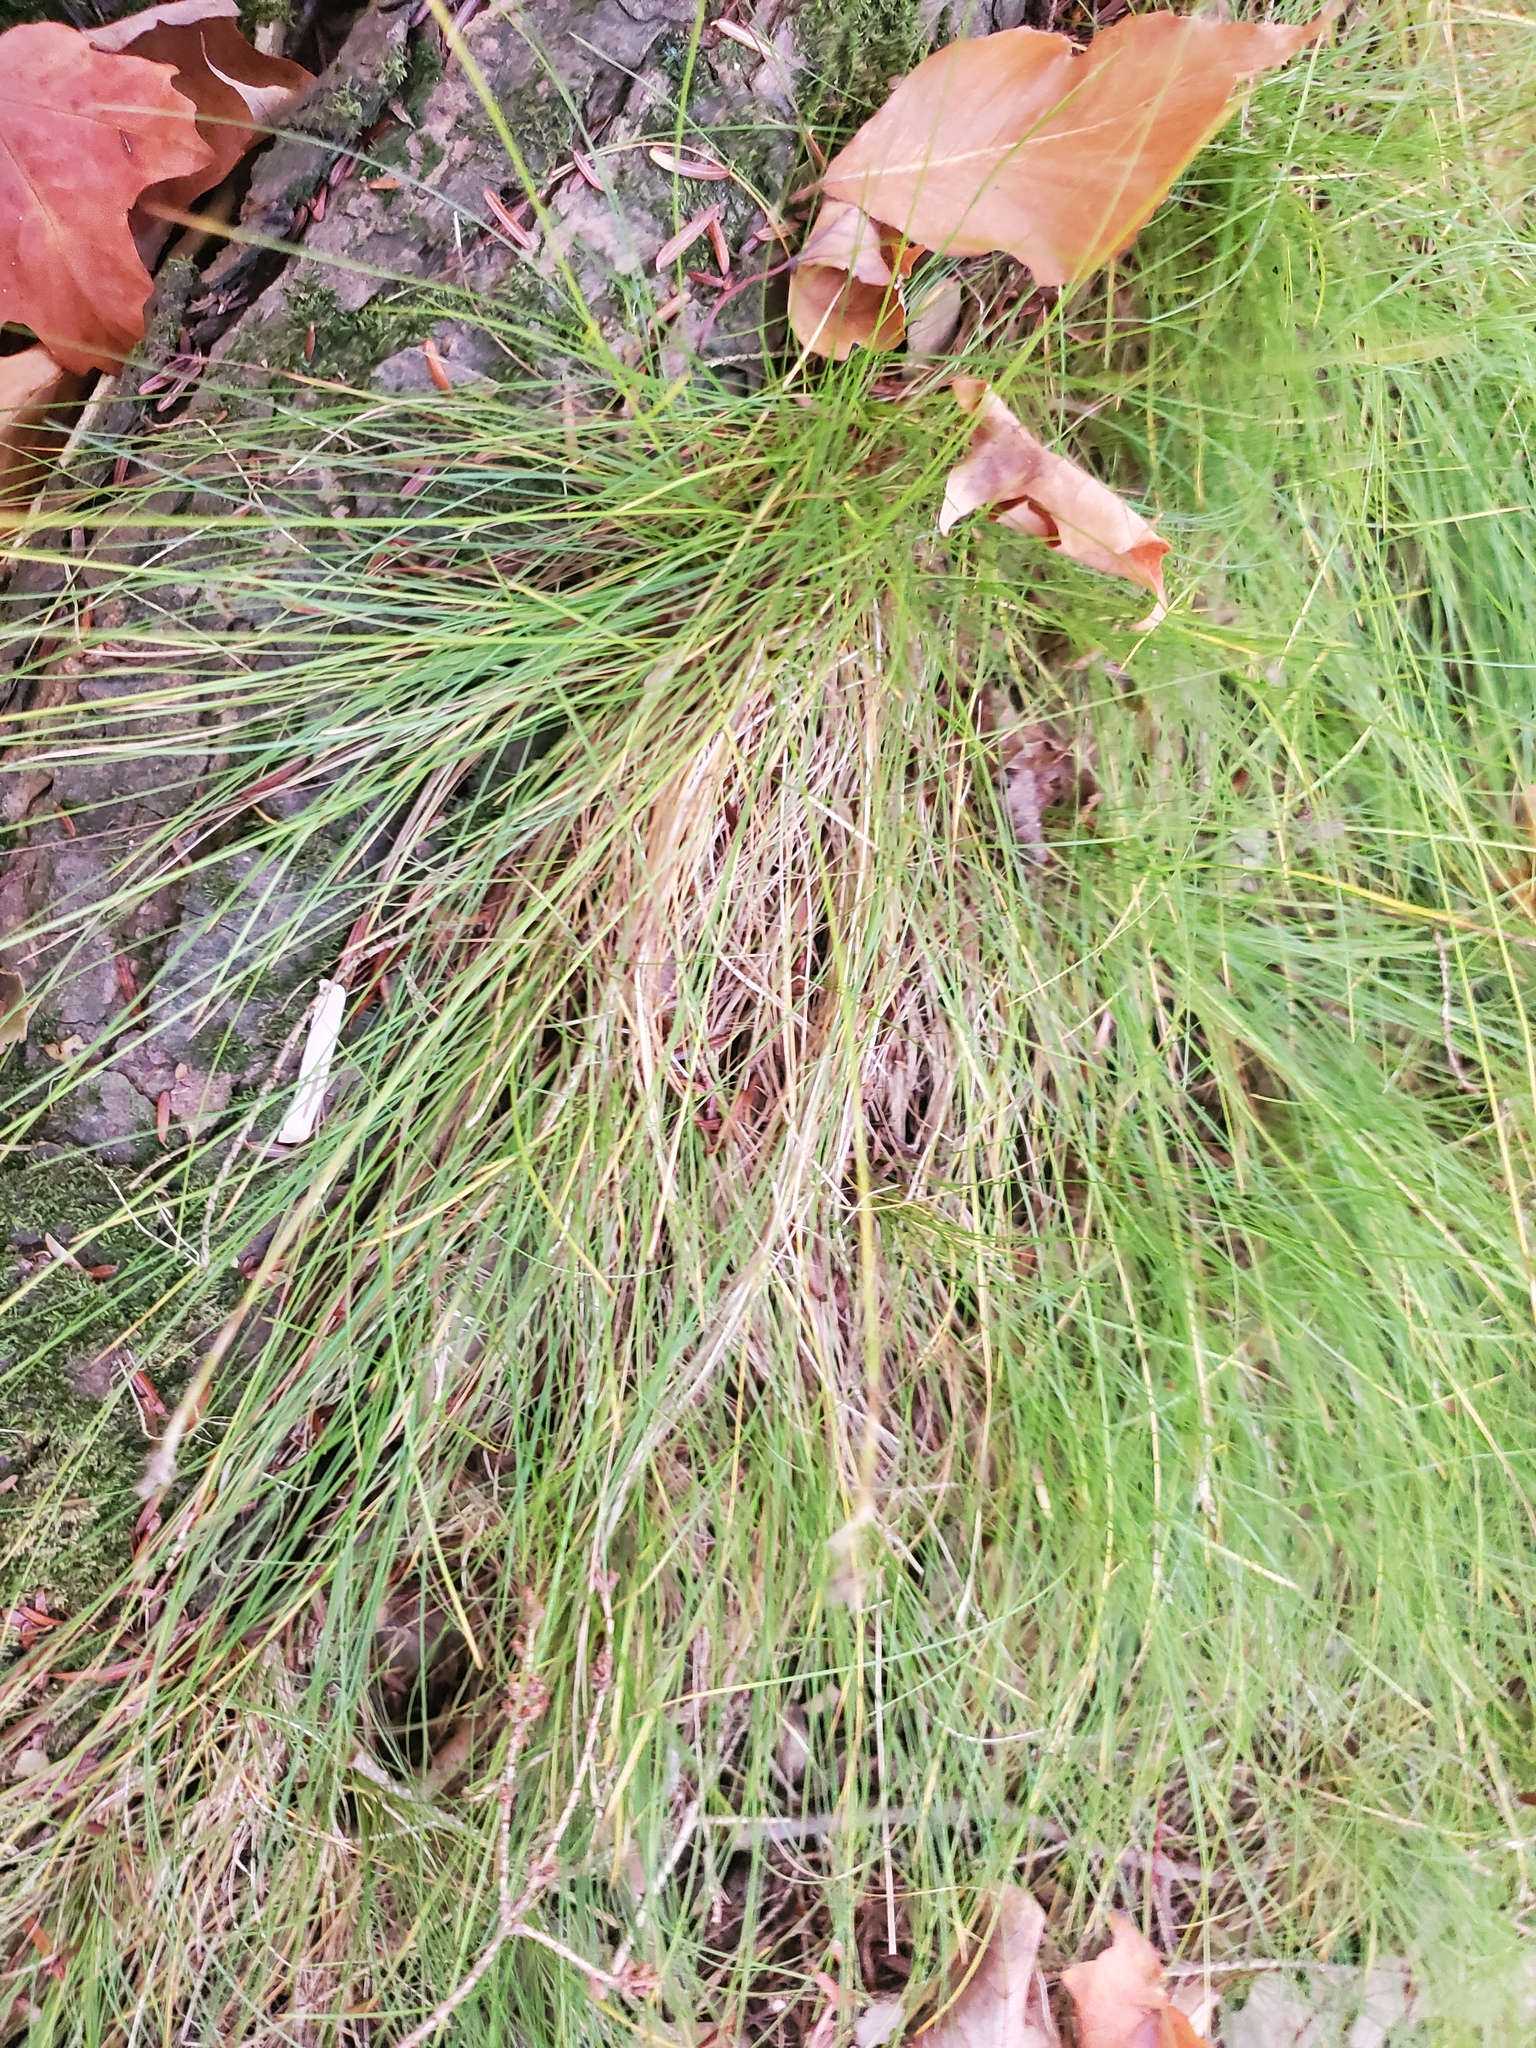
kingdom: Plantae
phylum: Tracheophyta
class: Liliopsida
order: Poales
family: Cyperaceae
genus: Carex
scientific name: Carex eburnea
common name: Bristle-leaved sedge
